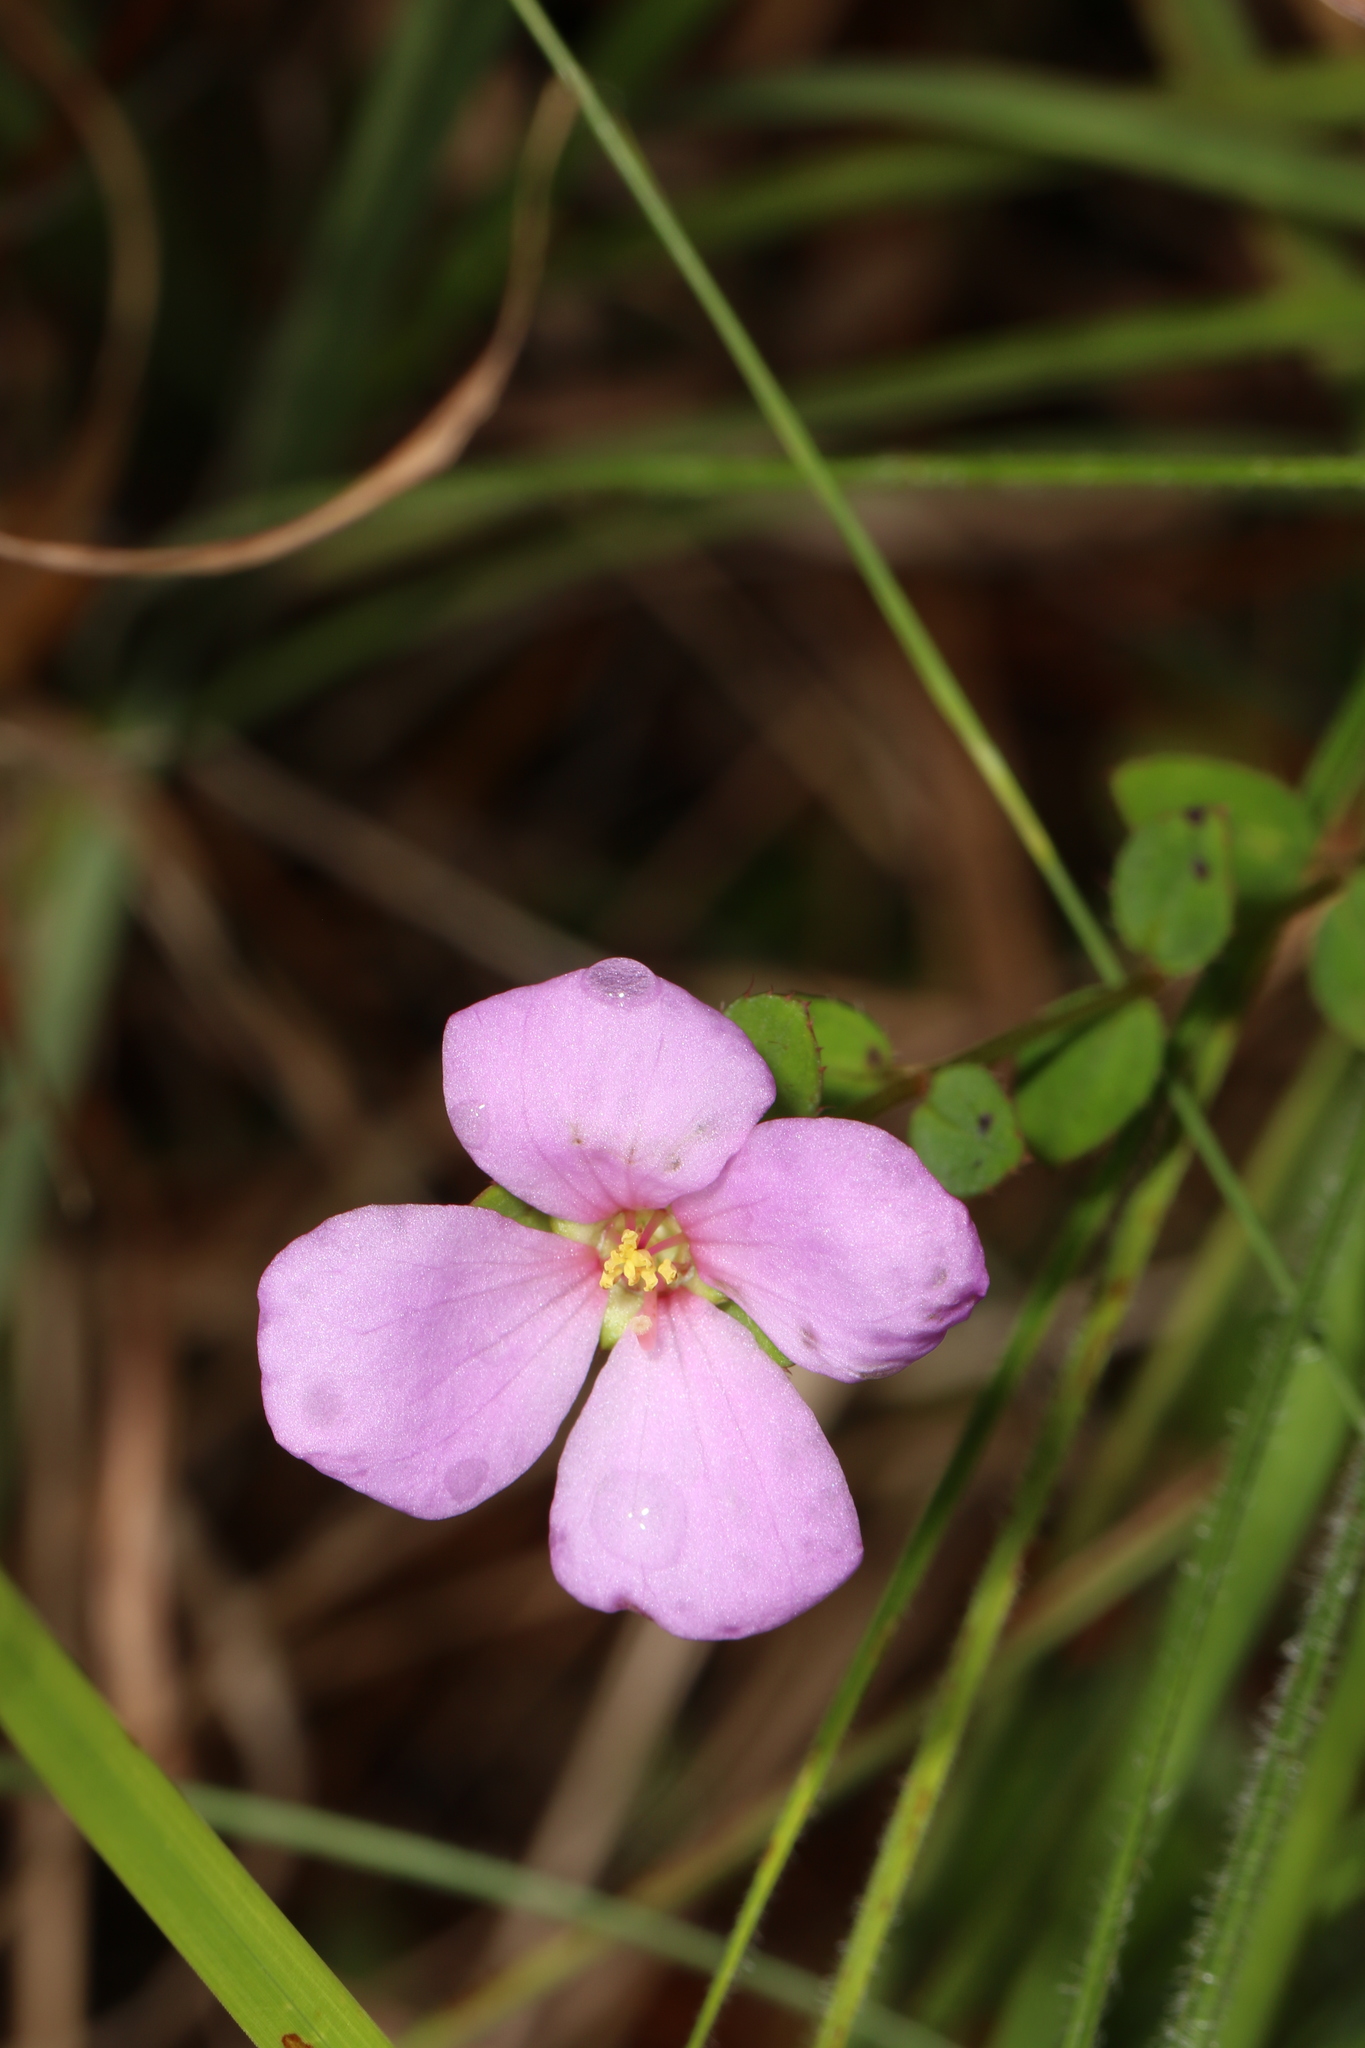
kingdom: Plantae
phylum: Tracheophyta
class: Magnoliopsida
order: Myrtales
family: Melastomataceae
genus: Rhexia
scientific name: Rhexia petiolata
